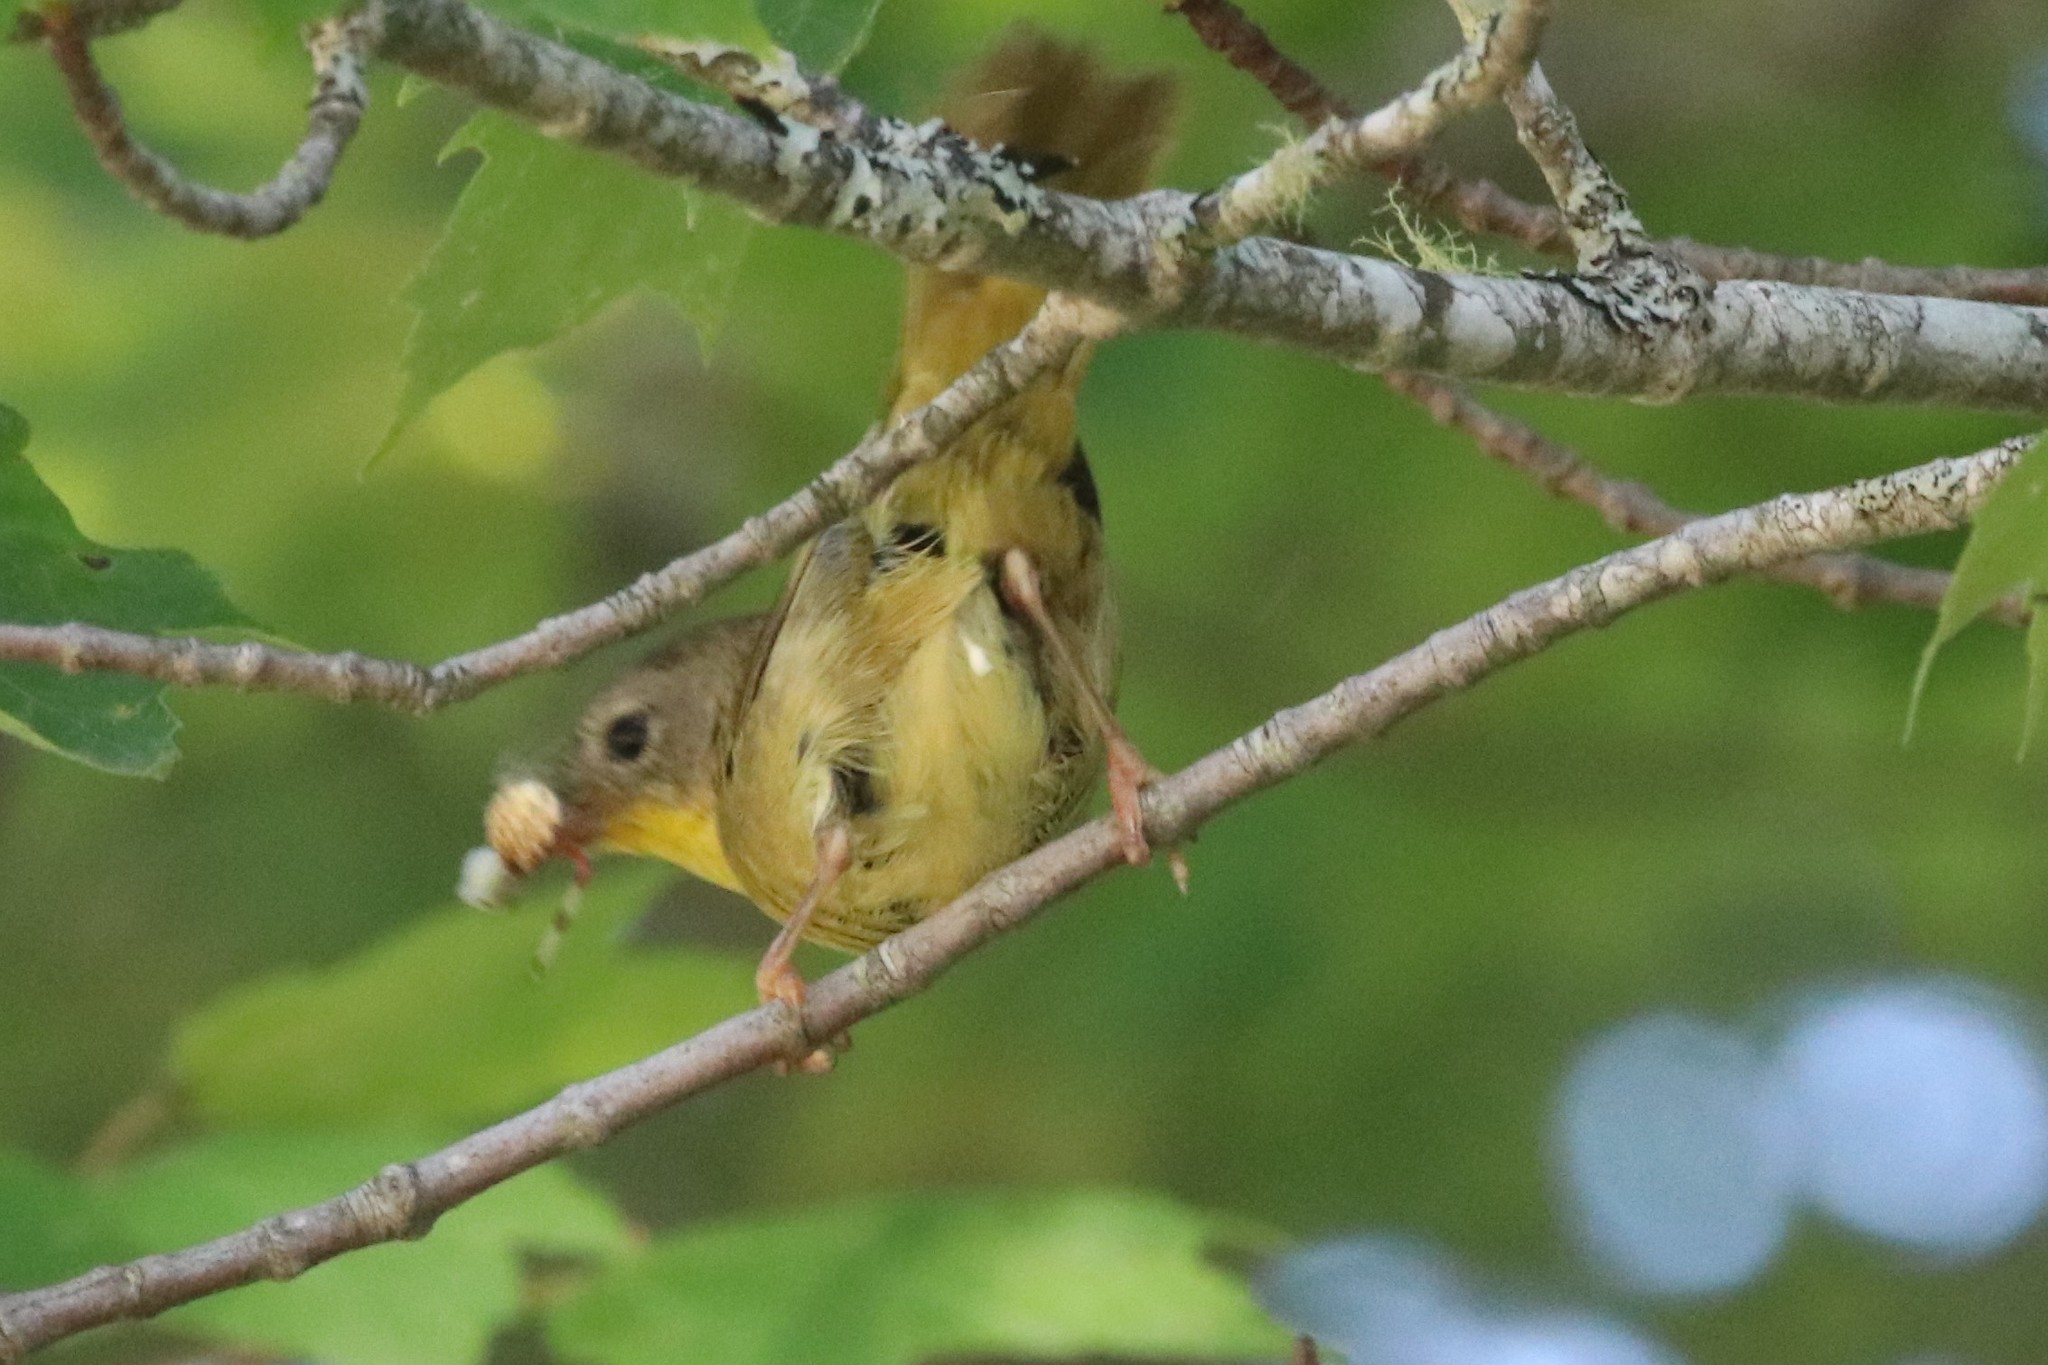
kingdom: Animalia
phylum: Chordata
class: Aves
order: Passeriformes
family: Parulidae
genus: Geothlypis
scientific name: Geothlypis trichas
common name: Common yellowthroat
